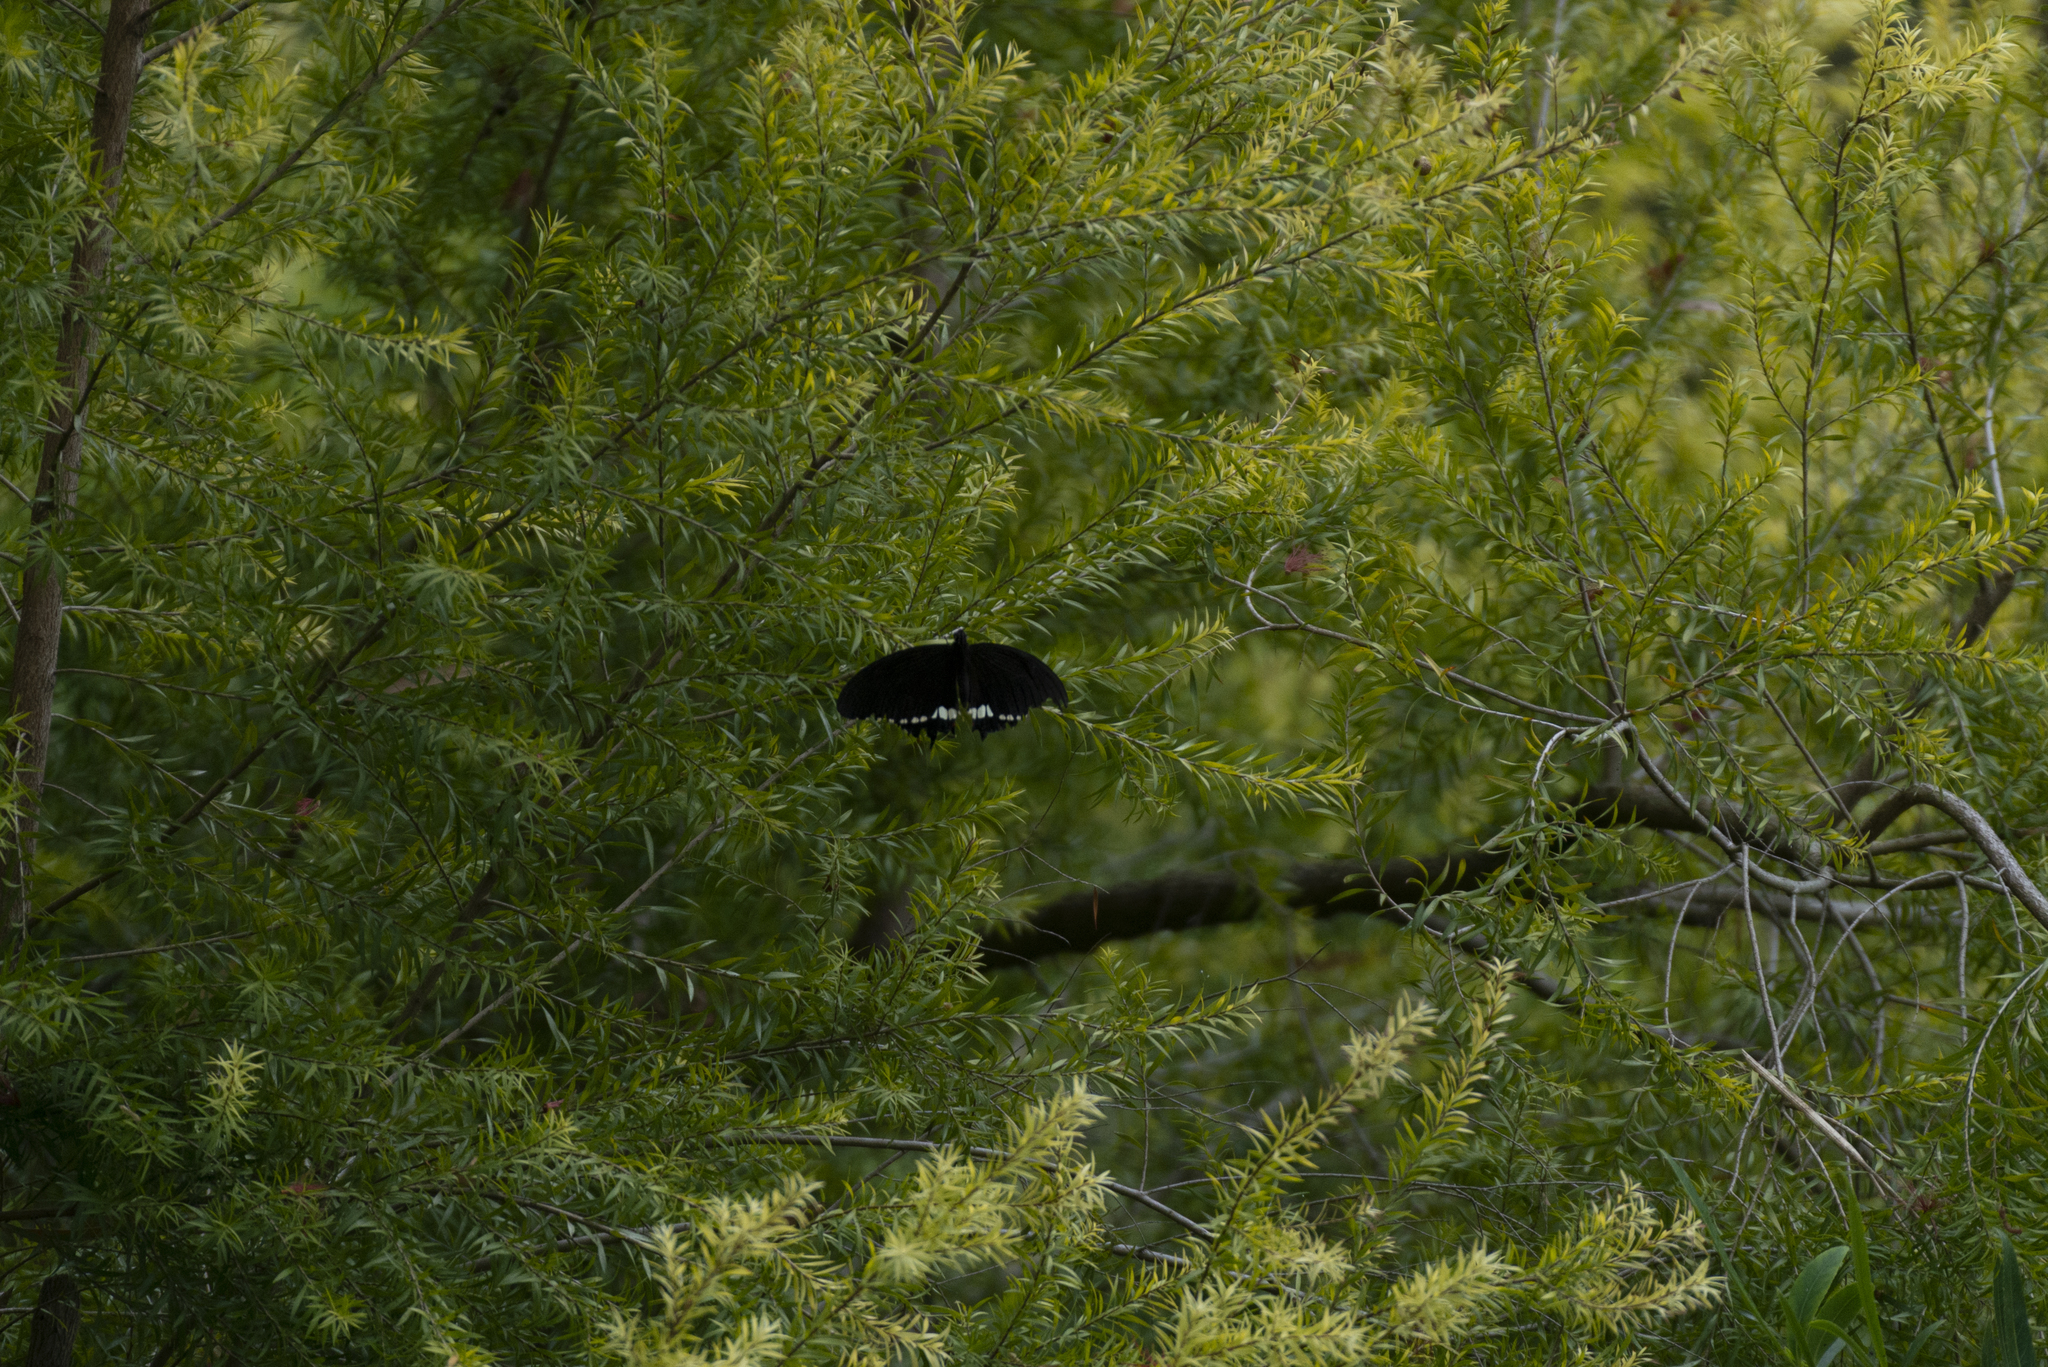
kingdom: Animalia
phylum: Arthropoda
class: Insecta
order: Lepidoptera
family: Papilionidae
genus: Papilio
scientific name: Papilio polytes
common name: Common mormon
